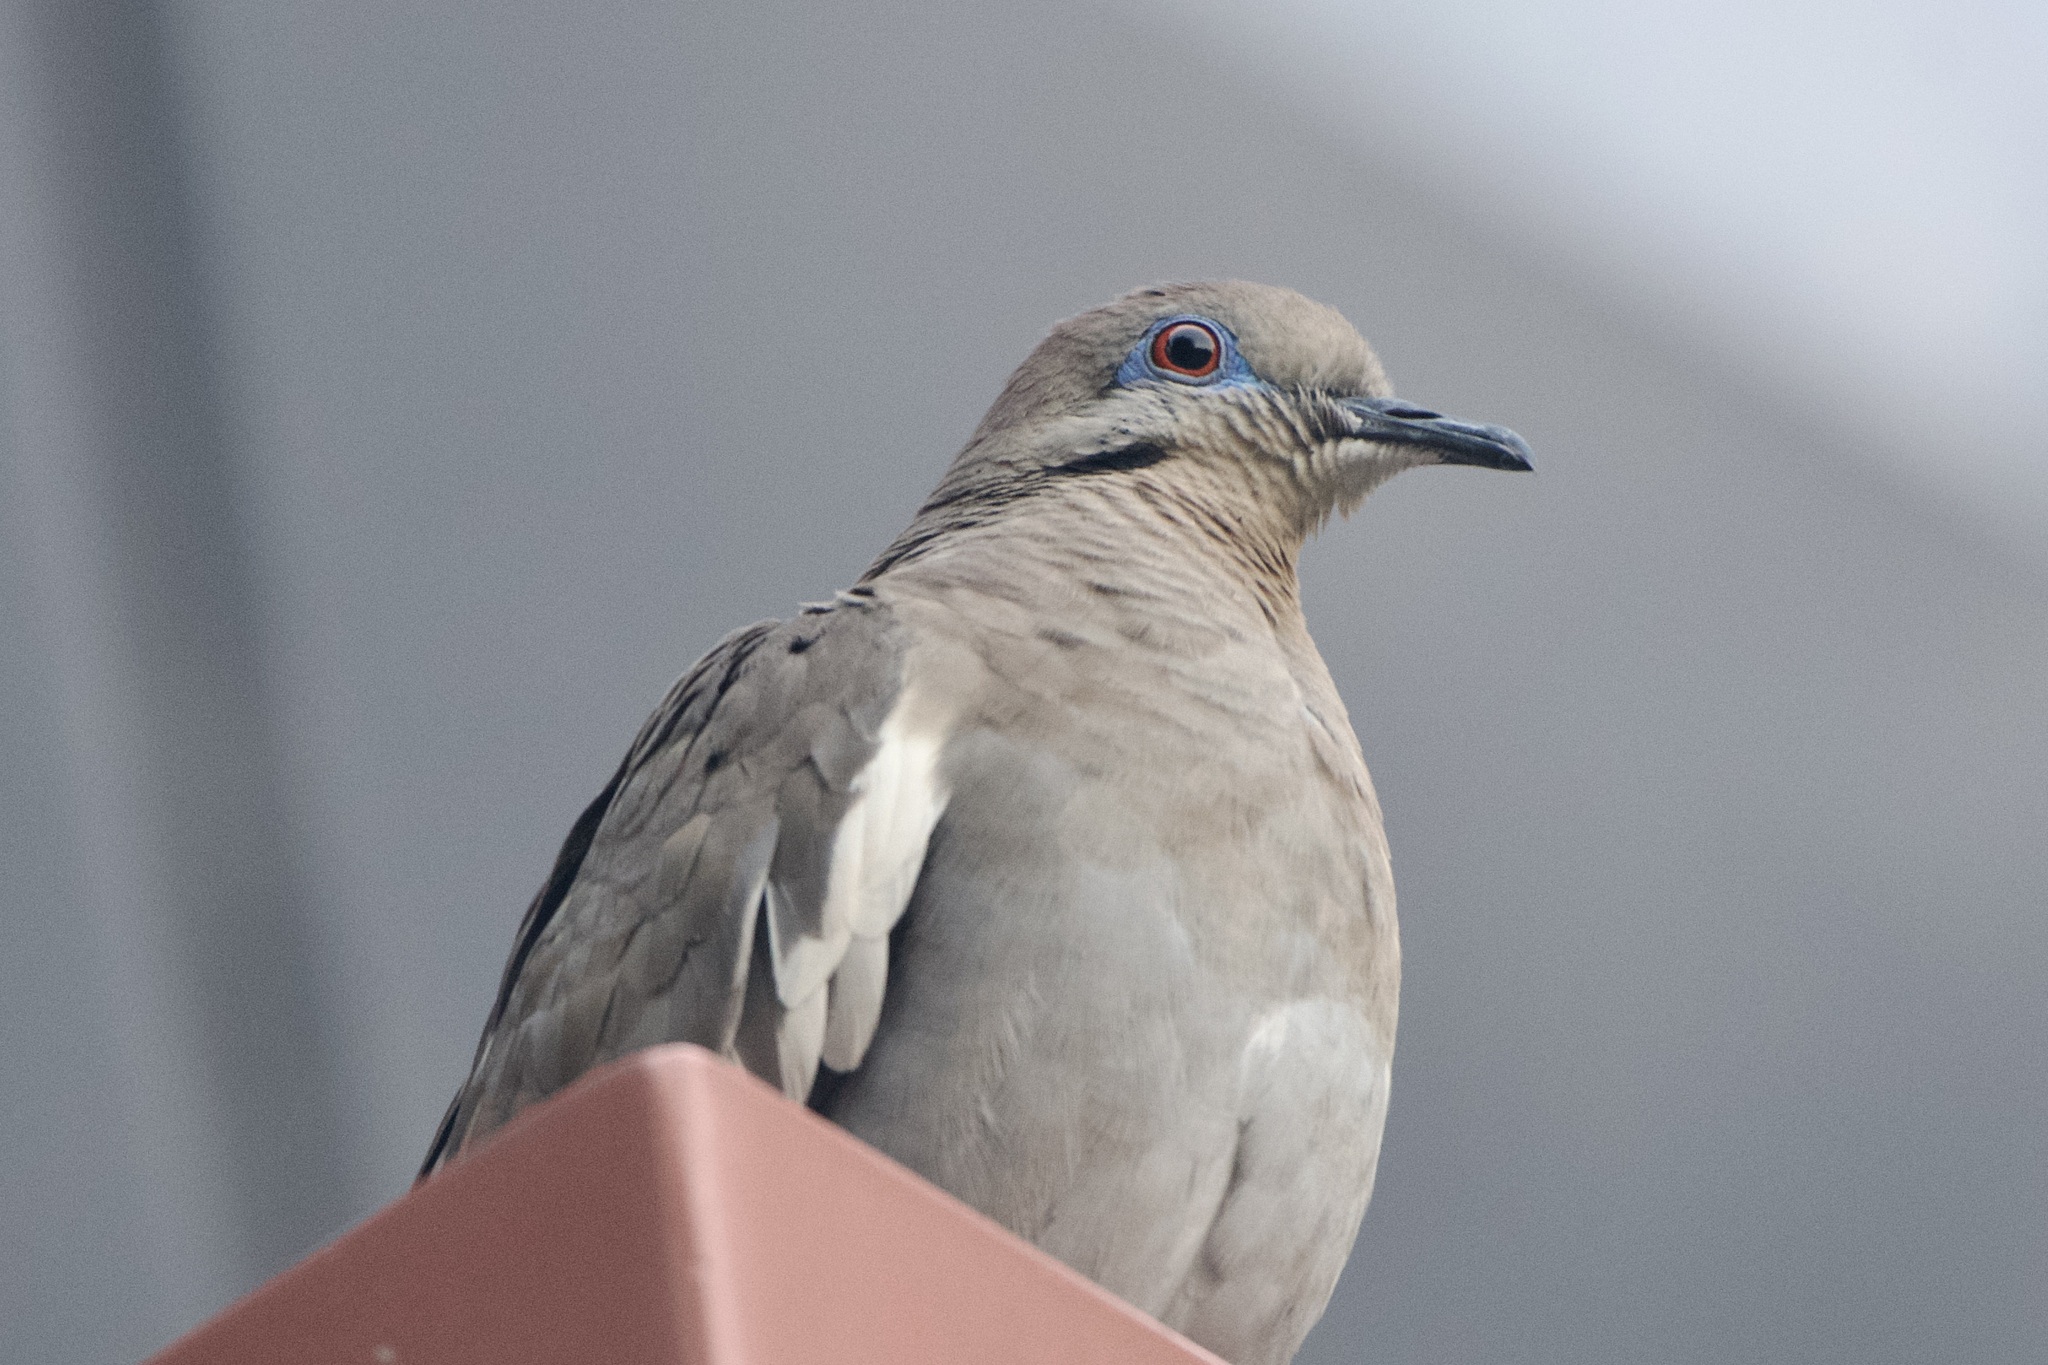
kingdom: Animalia
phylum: Chordata
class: Aves
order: Columbiformes
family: Columbidae
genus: Zenaida
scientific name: Zenaida asiatica
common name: White-winged dove
